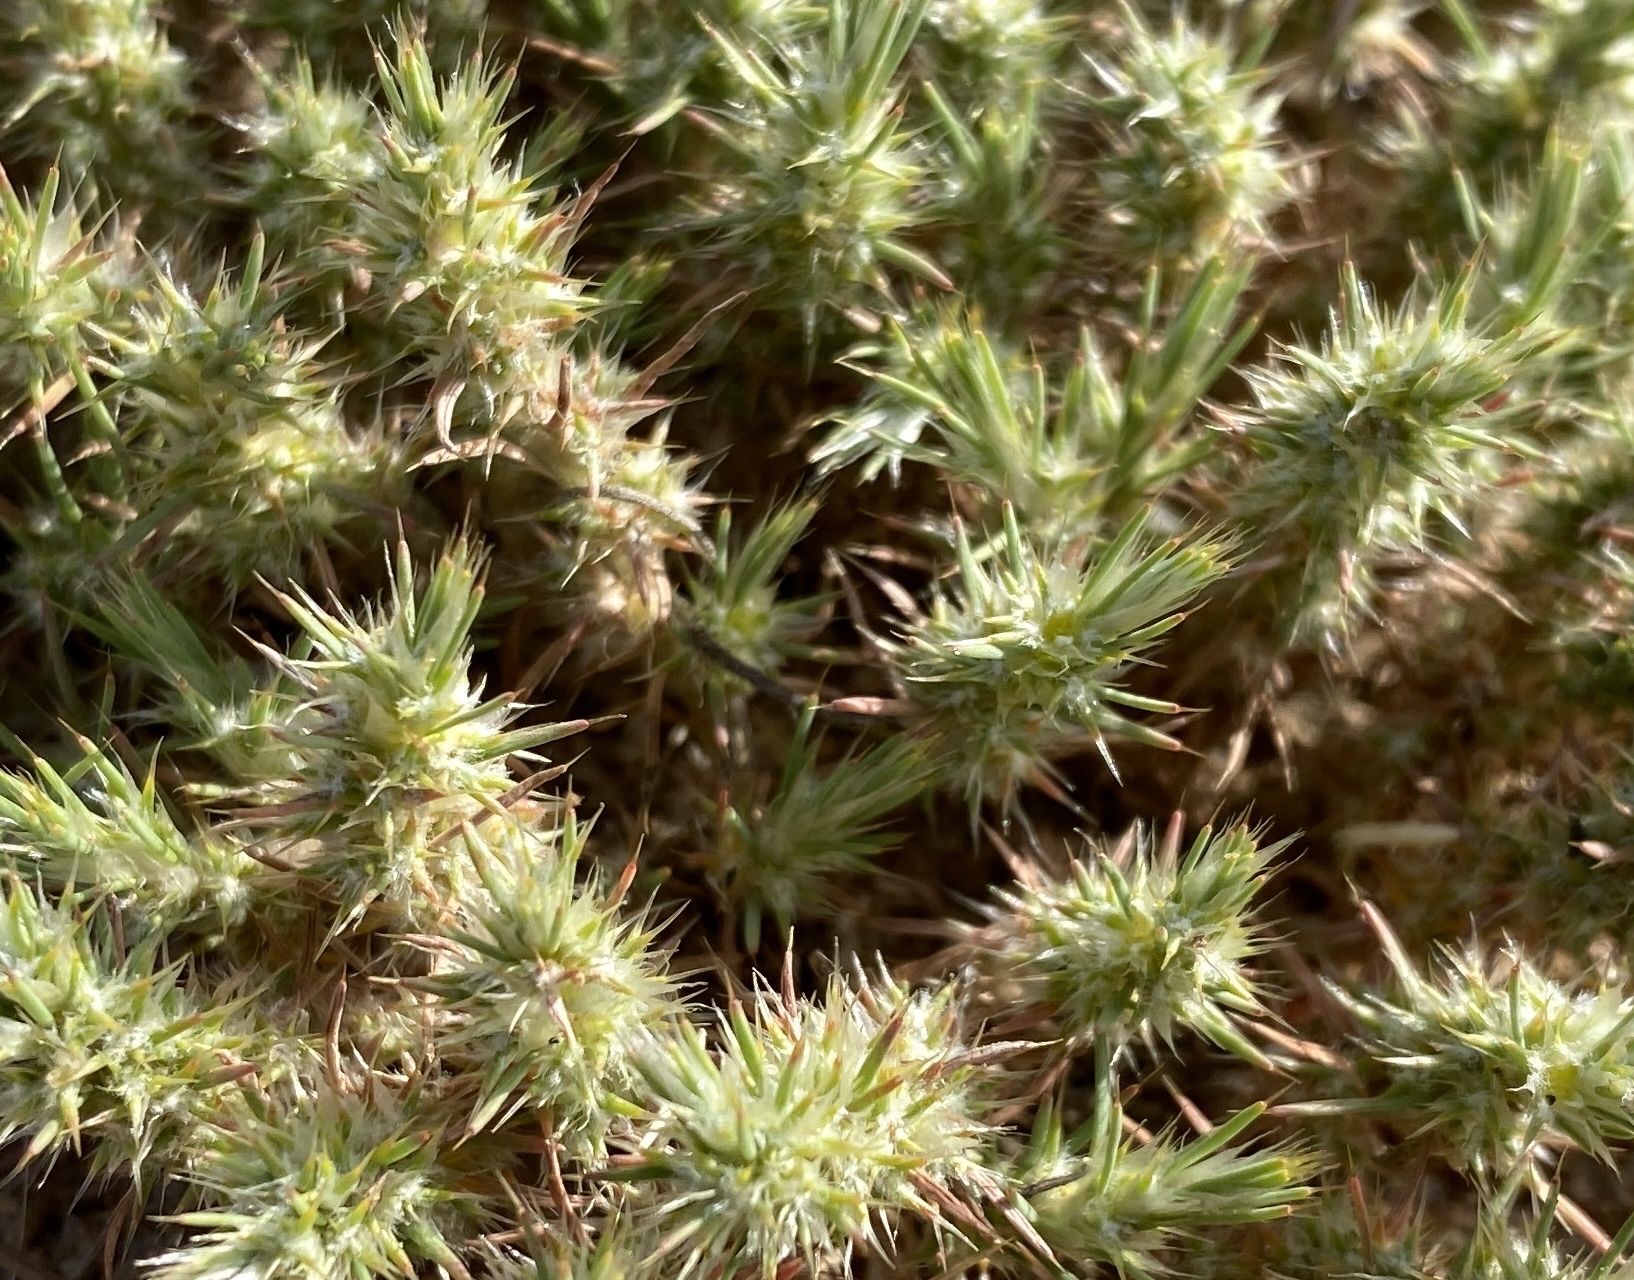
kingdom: Plantae
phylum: Tracheophyta
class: Magnoliopsida
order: Caryophyllales
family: Caryophyllaceae
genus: Cardionema
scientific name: Cardionema ramosissima
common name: Sandcarpet
